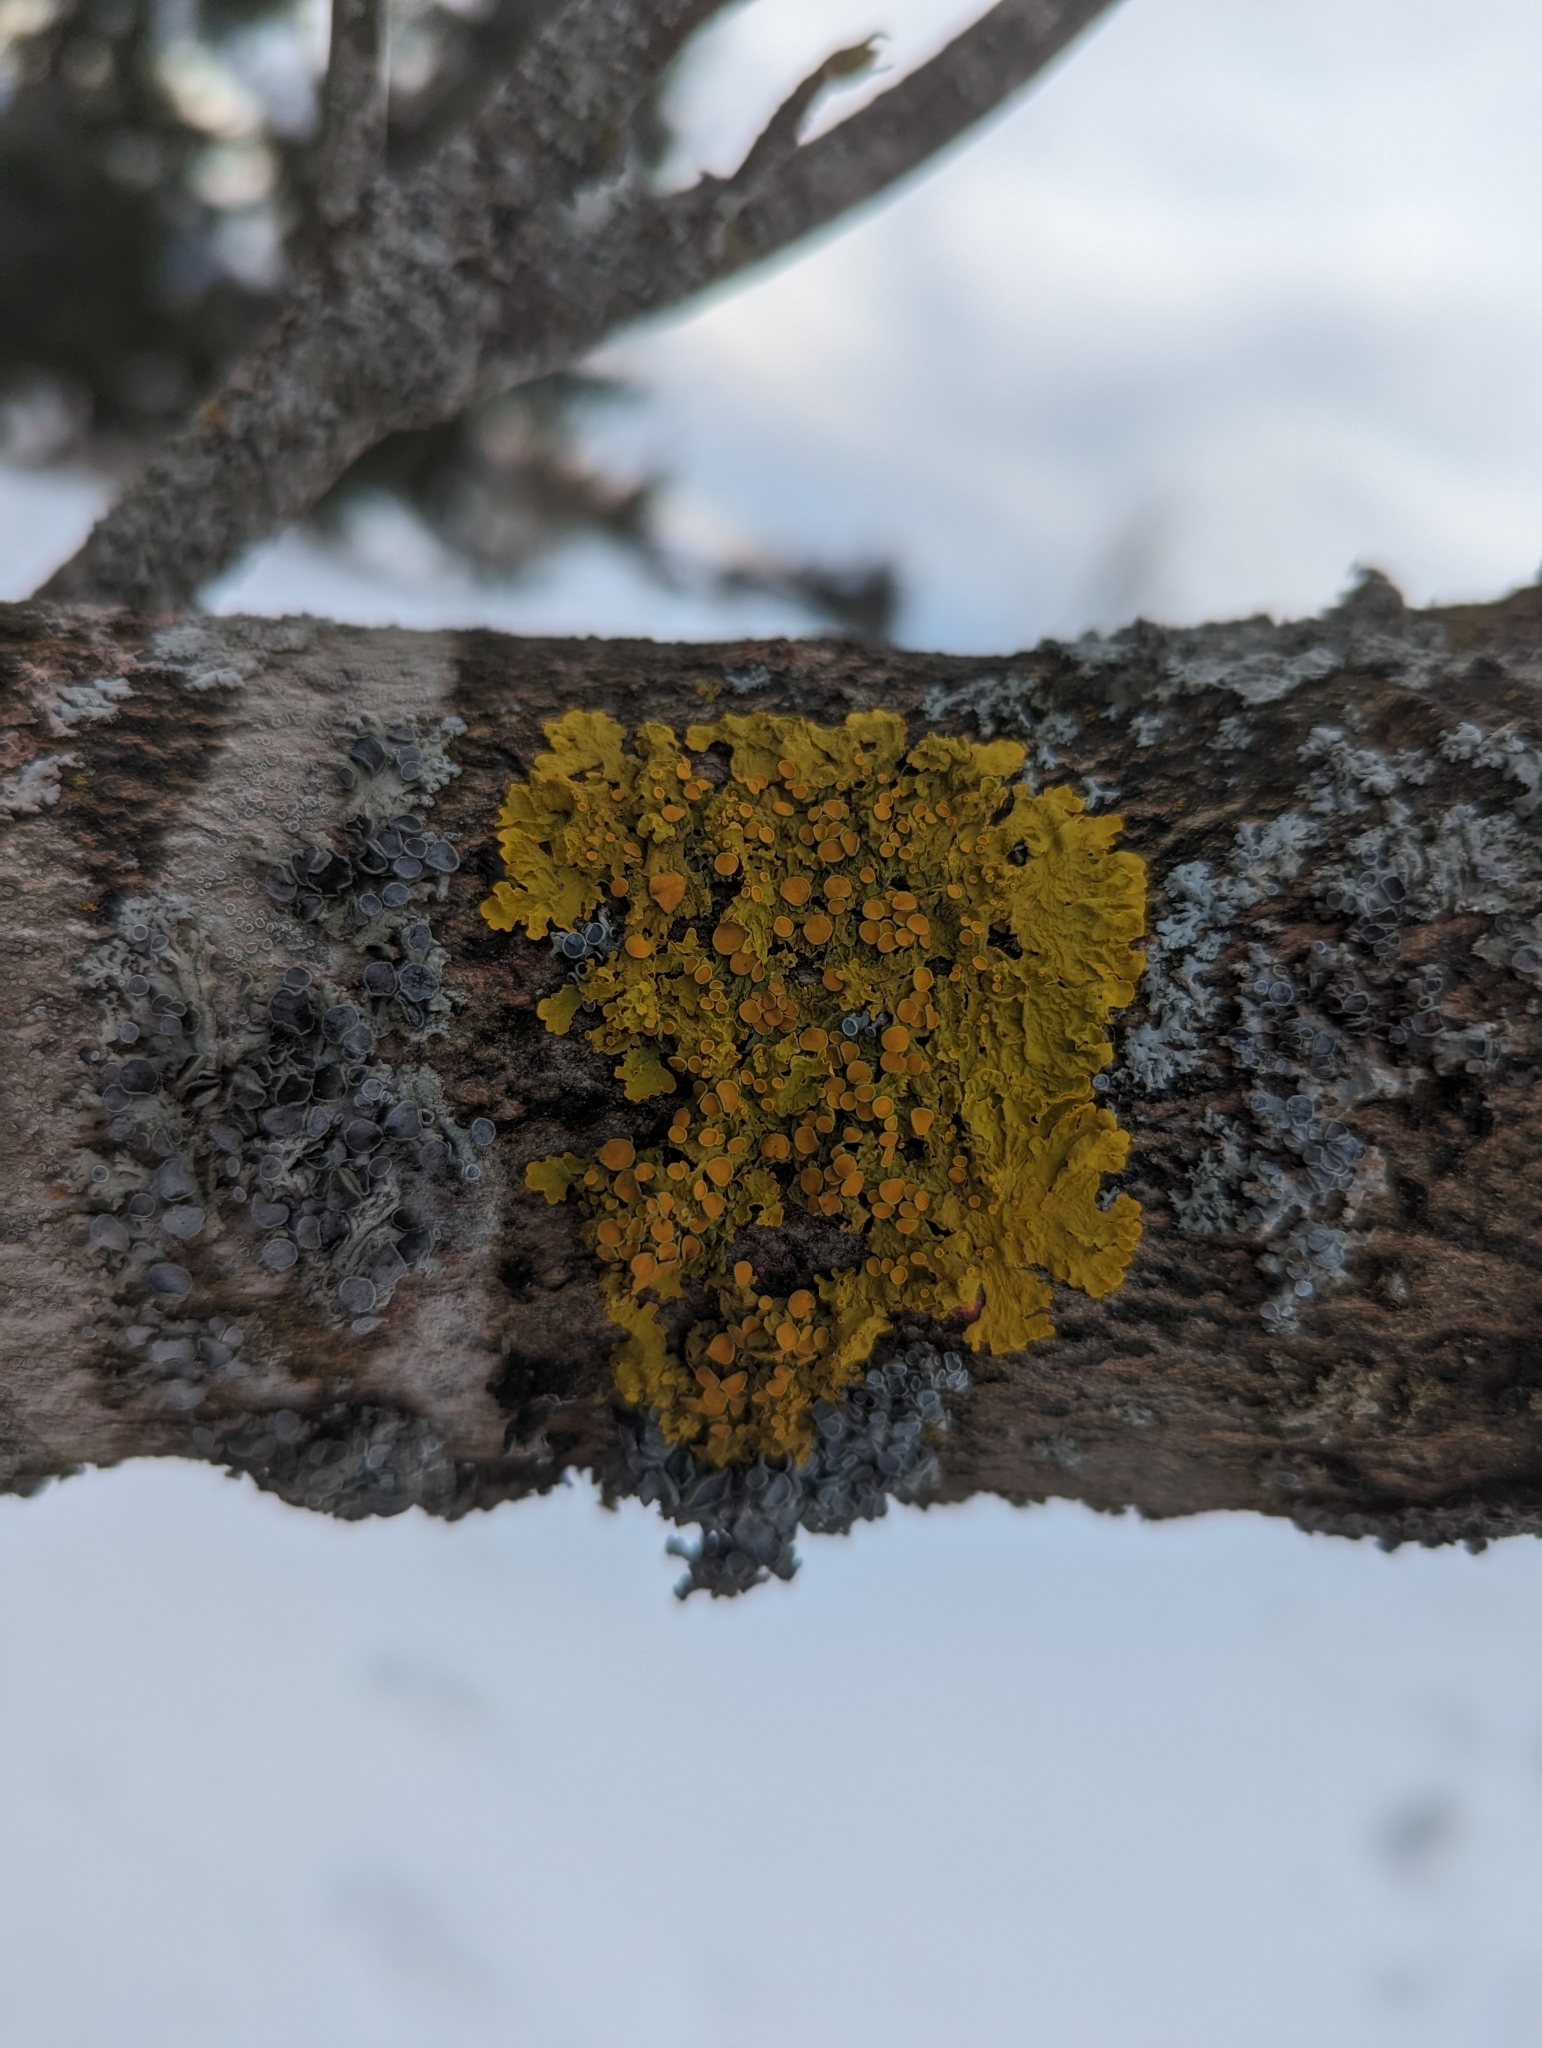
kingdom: Fungi
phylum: Ascomycota
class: Lecanoromycetes
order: Teloschistales
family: Teloschistaceae
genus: Xanthoria
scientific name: Xanthoria parietina
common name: Common orange lichen
